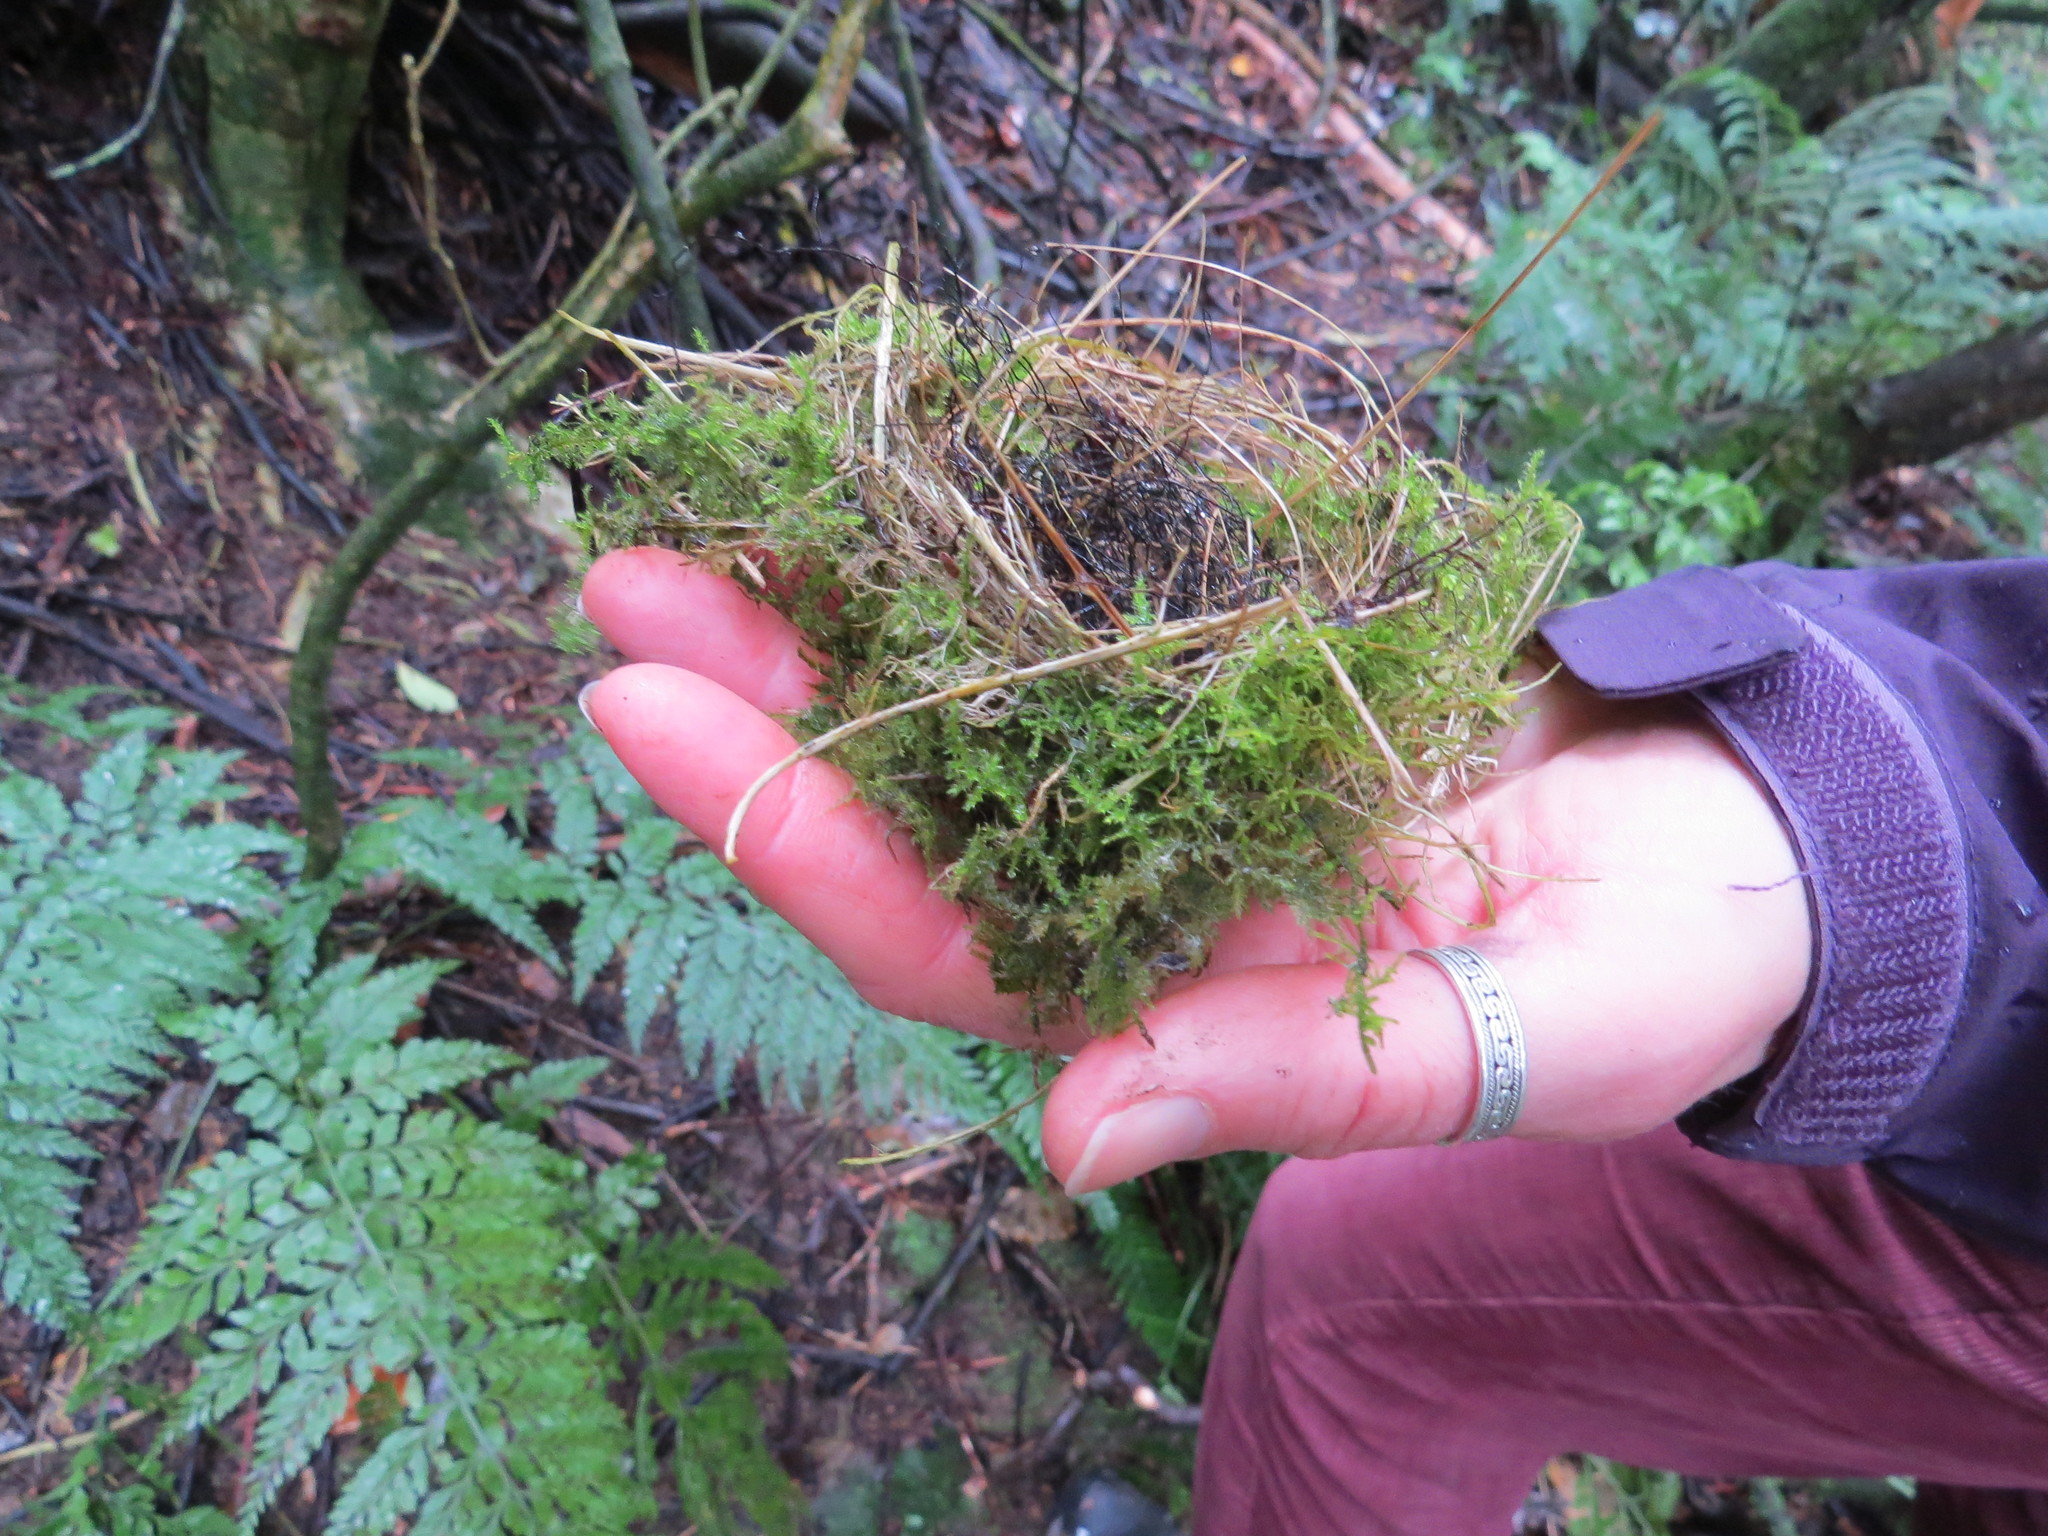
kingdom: Animalia
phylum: Chordata
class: Aves
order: Passeriformes
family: Zosteropidae
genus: Zosterops
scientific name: Zosterops lateralis
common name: Silvereye
